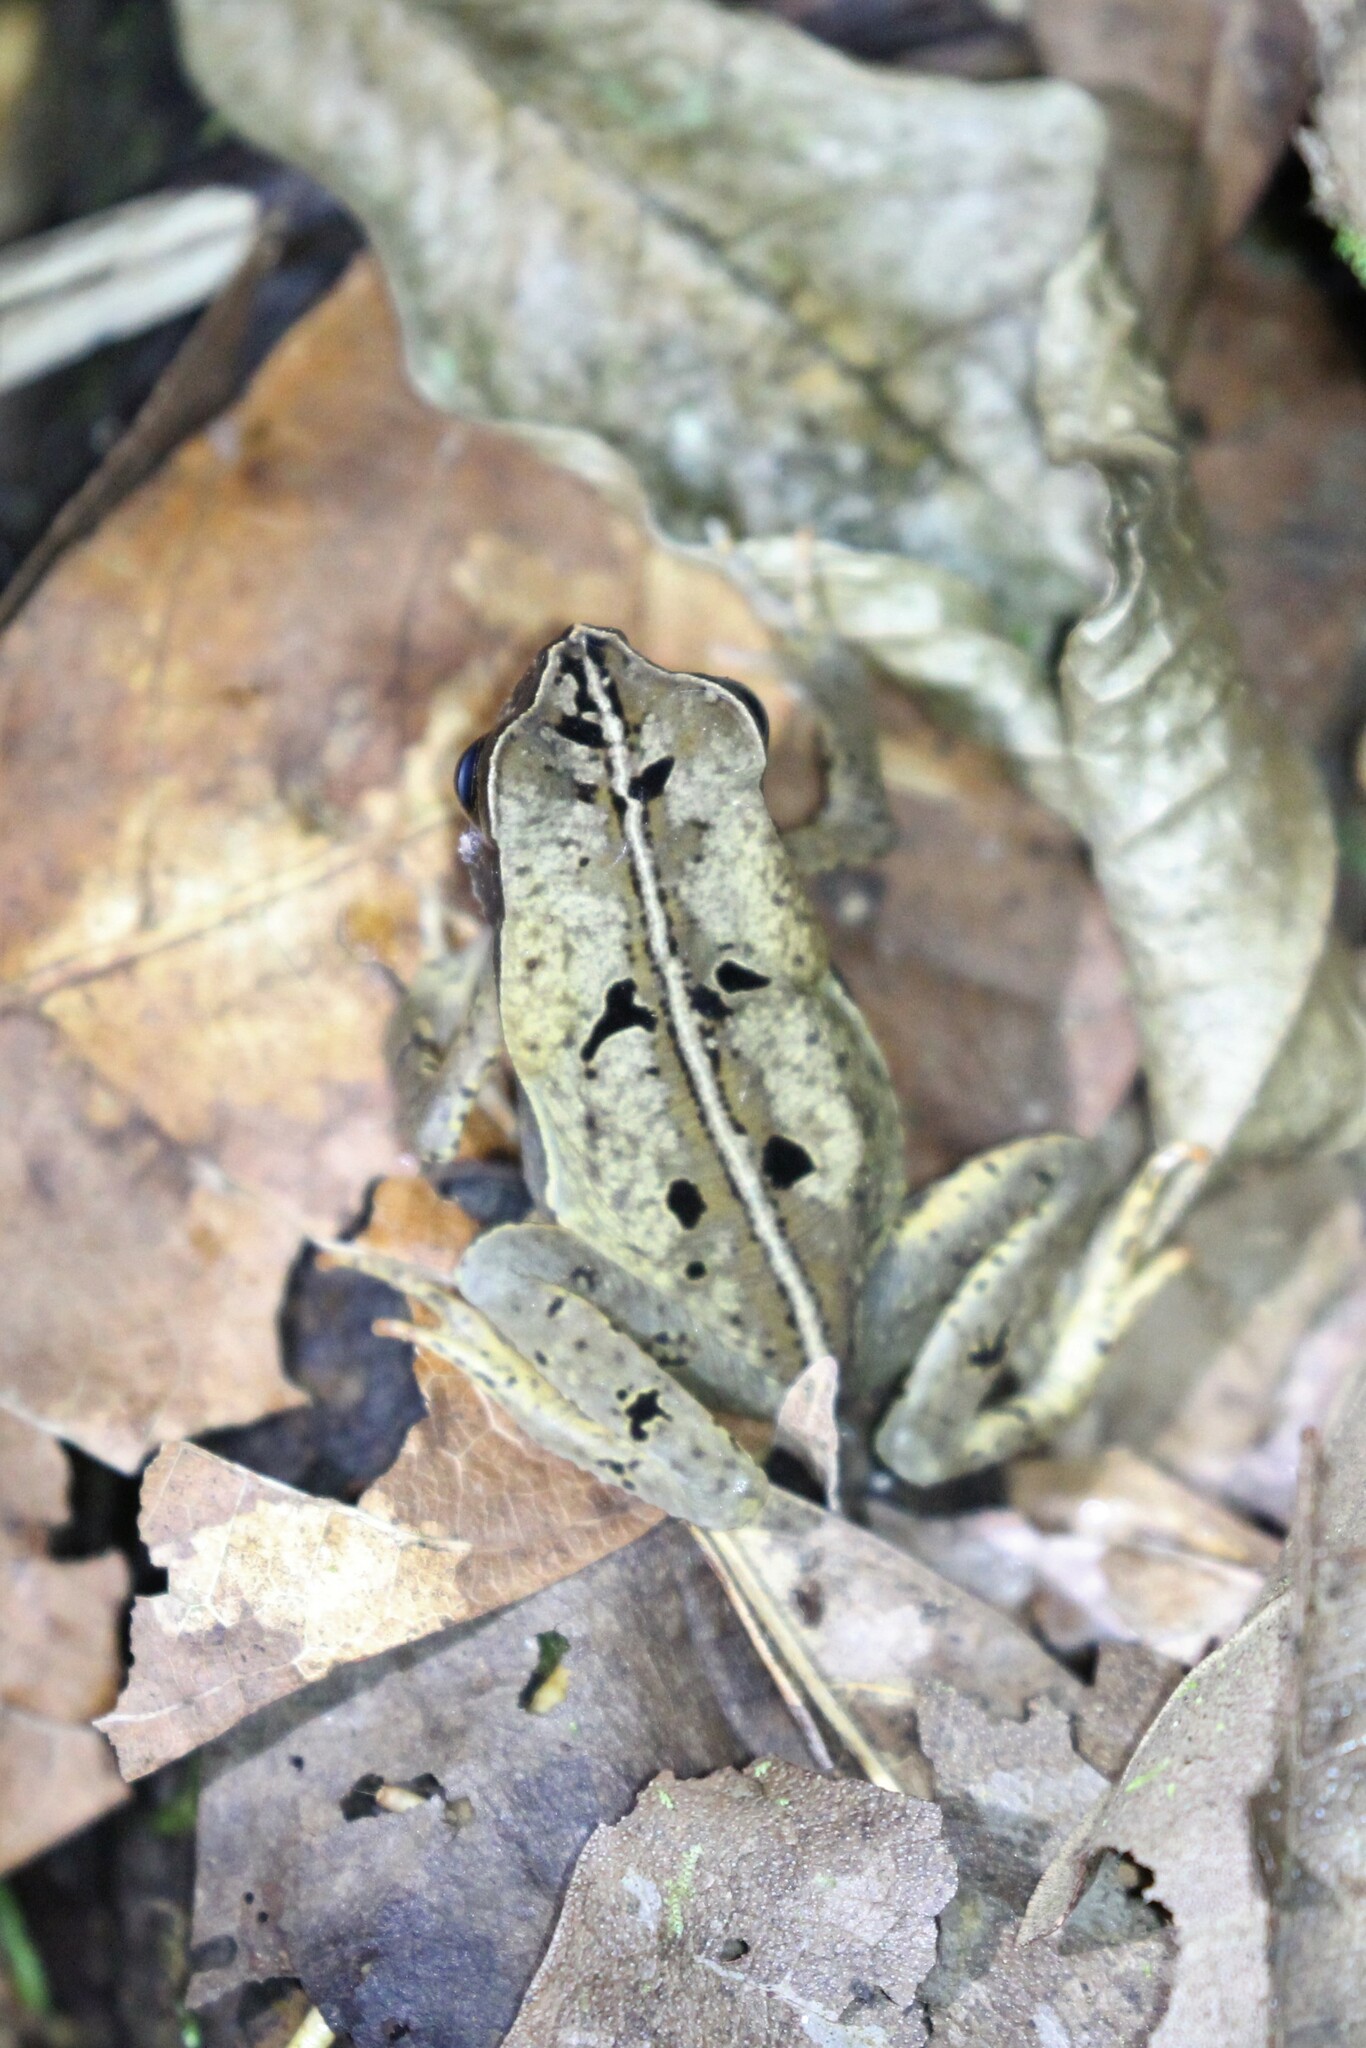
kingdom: Animalia
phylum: Chordata
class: Amphibia
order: Anura
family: Bufonidae
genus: Rhaebo
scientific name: Rhaebo haematiticus
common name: Truando toad
